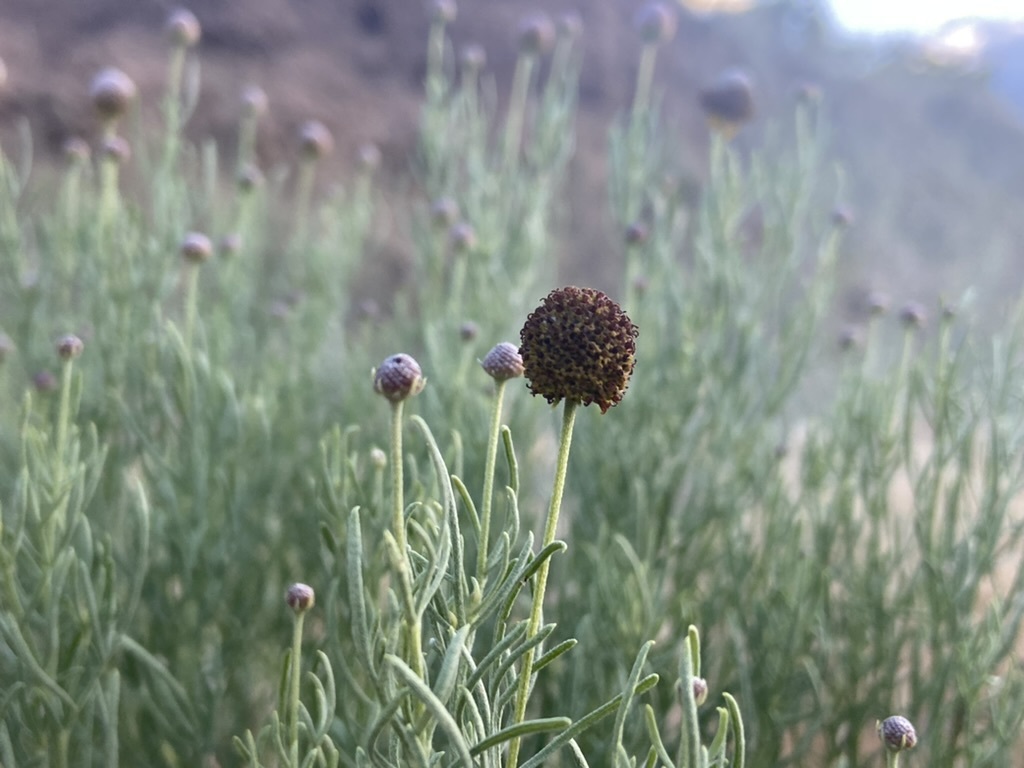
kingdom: Plantae
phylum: Tracheophyta
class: Magnoliopsida
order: Asterales
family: Asteraceae
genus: Ratibida
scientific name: Ratibida tagetes
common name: Green mexican-hat
